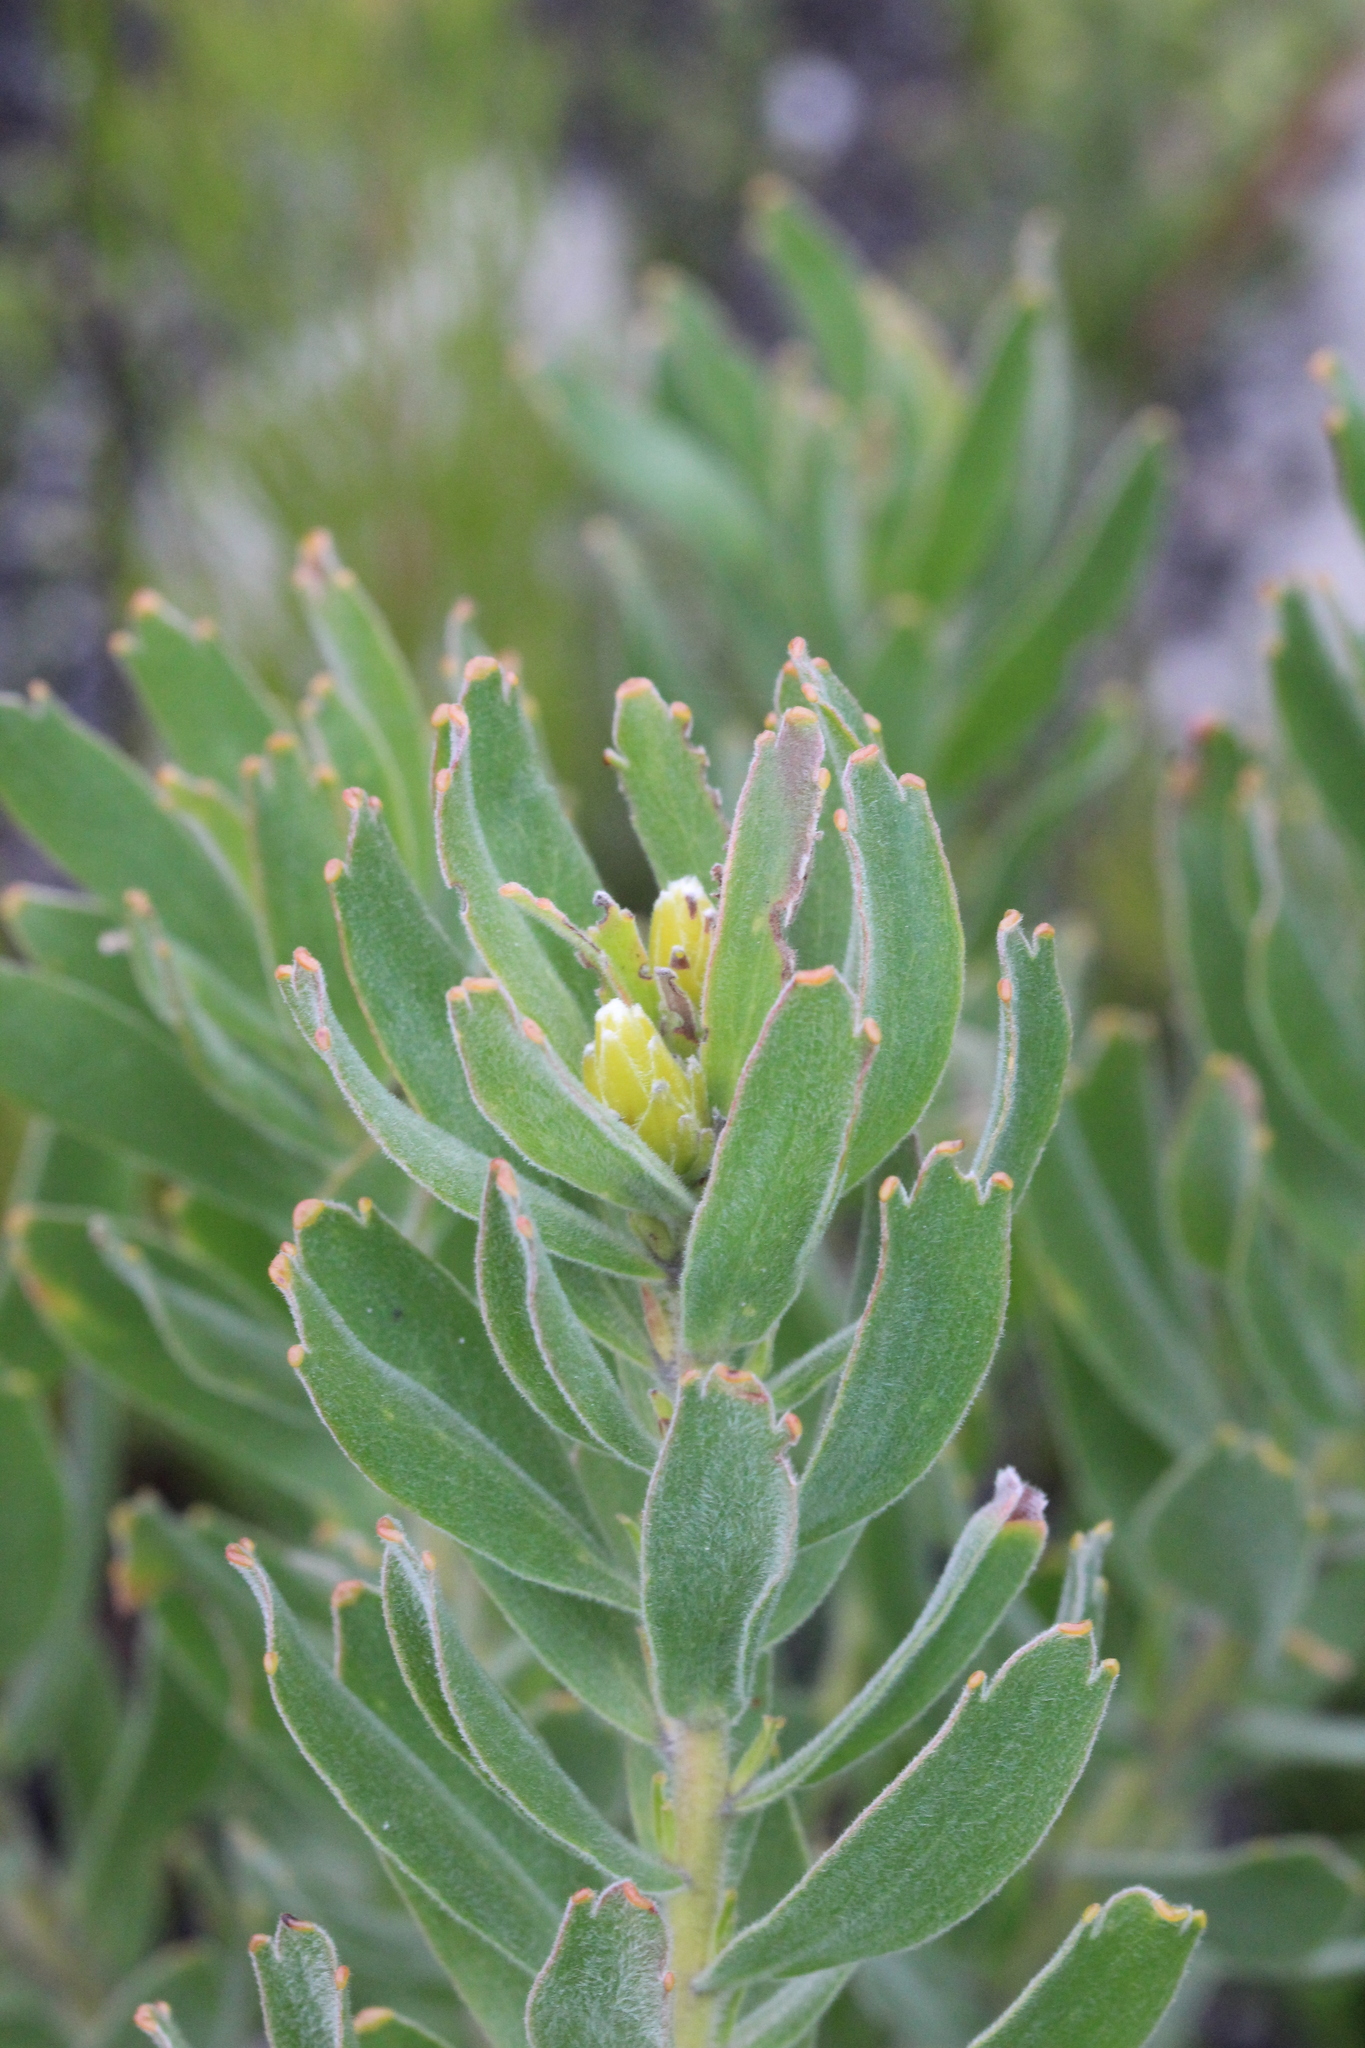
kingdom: Plantae
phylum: Tracheophyta
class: Magnoliopsida
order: Proteales
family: Proteaceae
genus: Leucospermum
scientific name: Leucospermum oleifolium
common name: Matches
